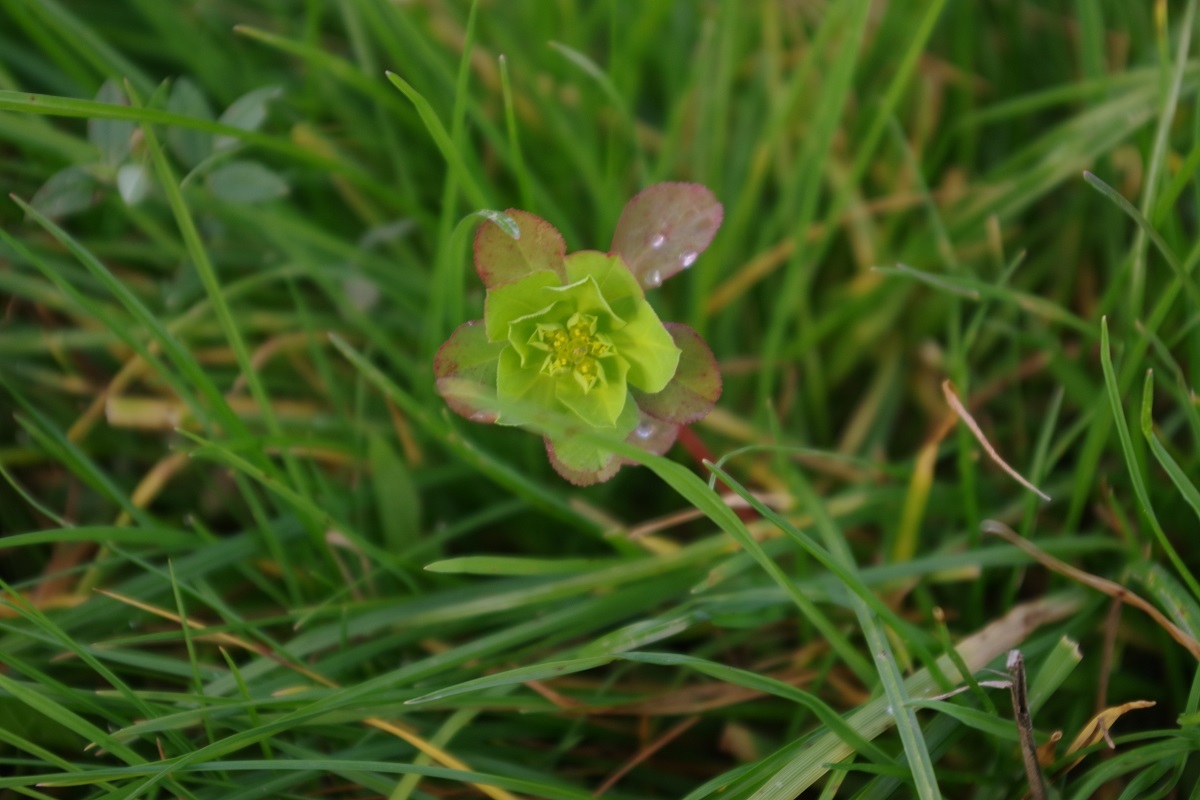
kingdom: Plantae
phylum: Tracheophyta
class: Magnoliopsida
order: Malpighiales
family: Euphorbiaceae
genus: Euphorbia
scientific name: Euphorbia helioscopia
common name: Sun spurge
